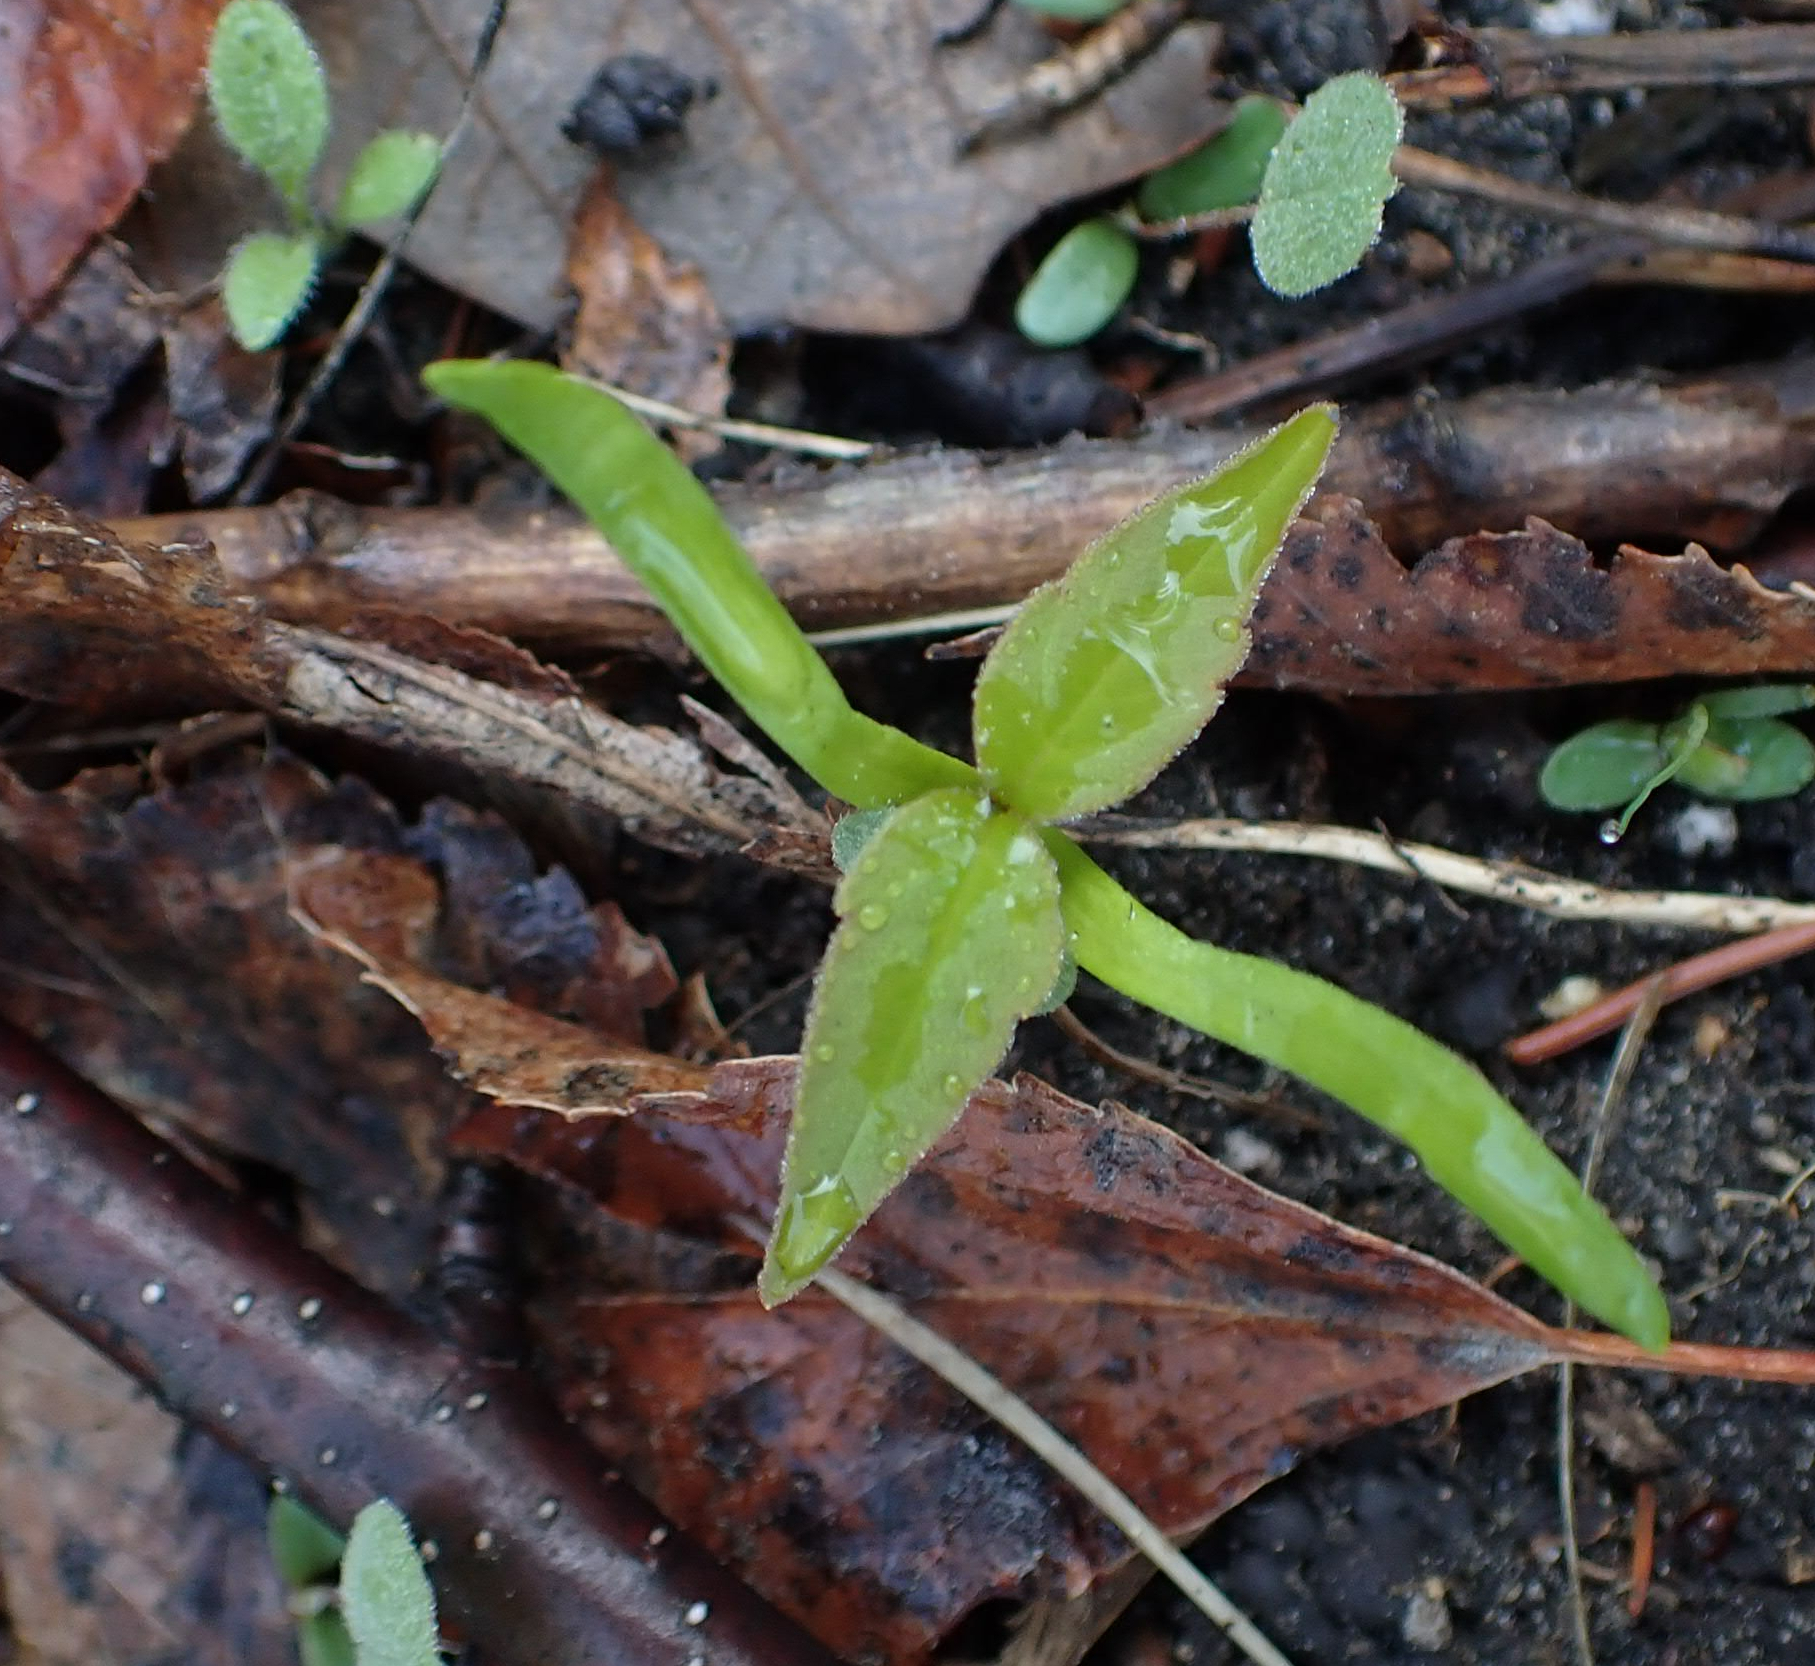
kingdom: Plantae
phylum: Tracheophyta
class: Magnoliopsida
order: Sapindales
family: Sapindaceae
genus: Acer
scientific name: Acer negundo
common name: Ashleaf maple
